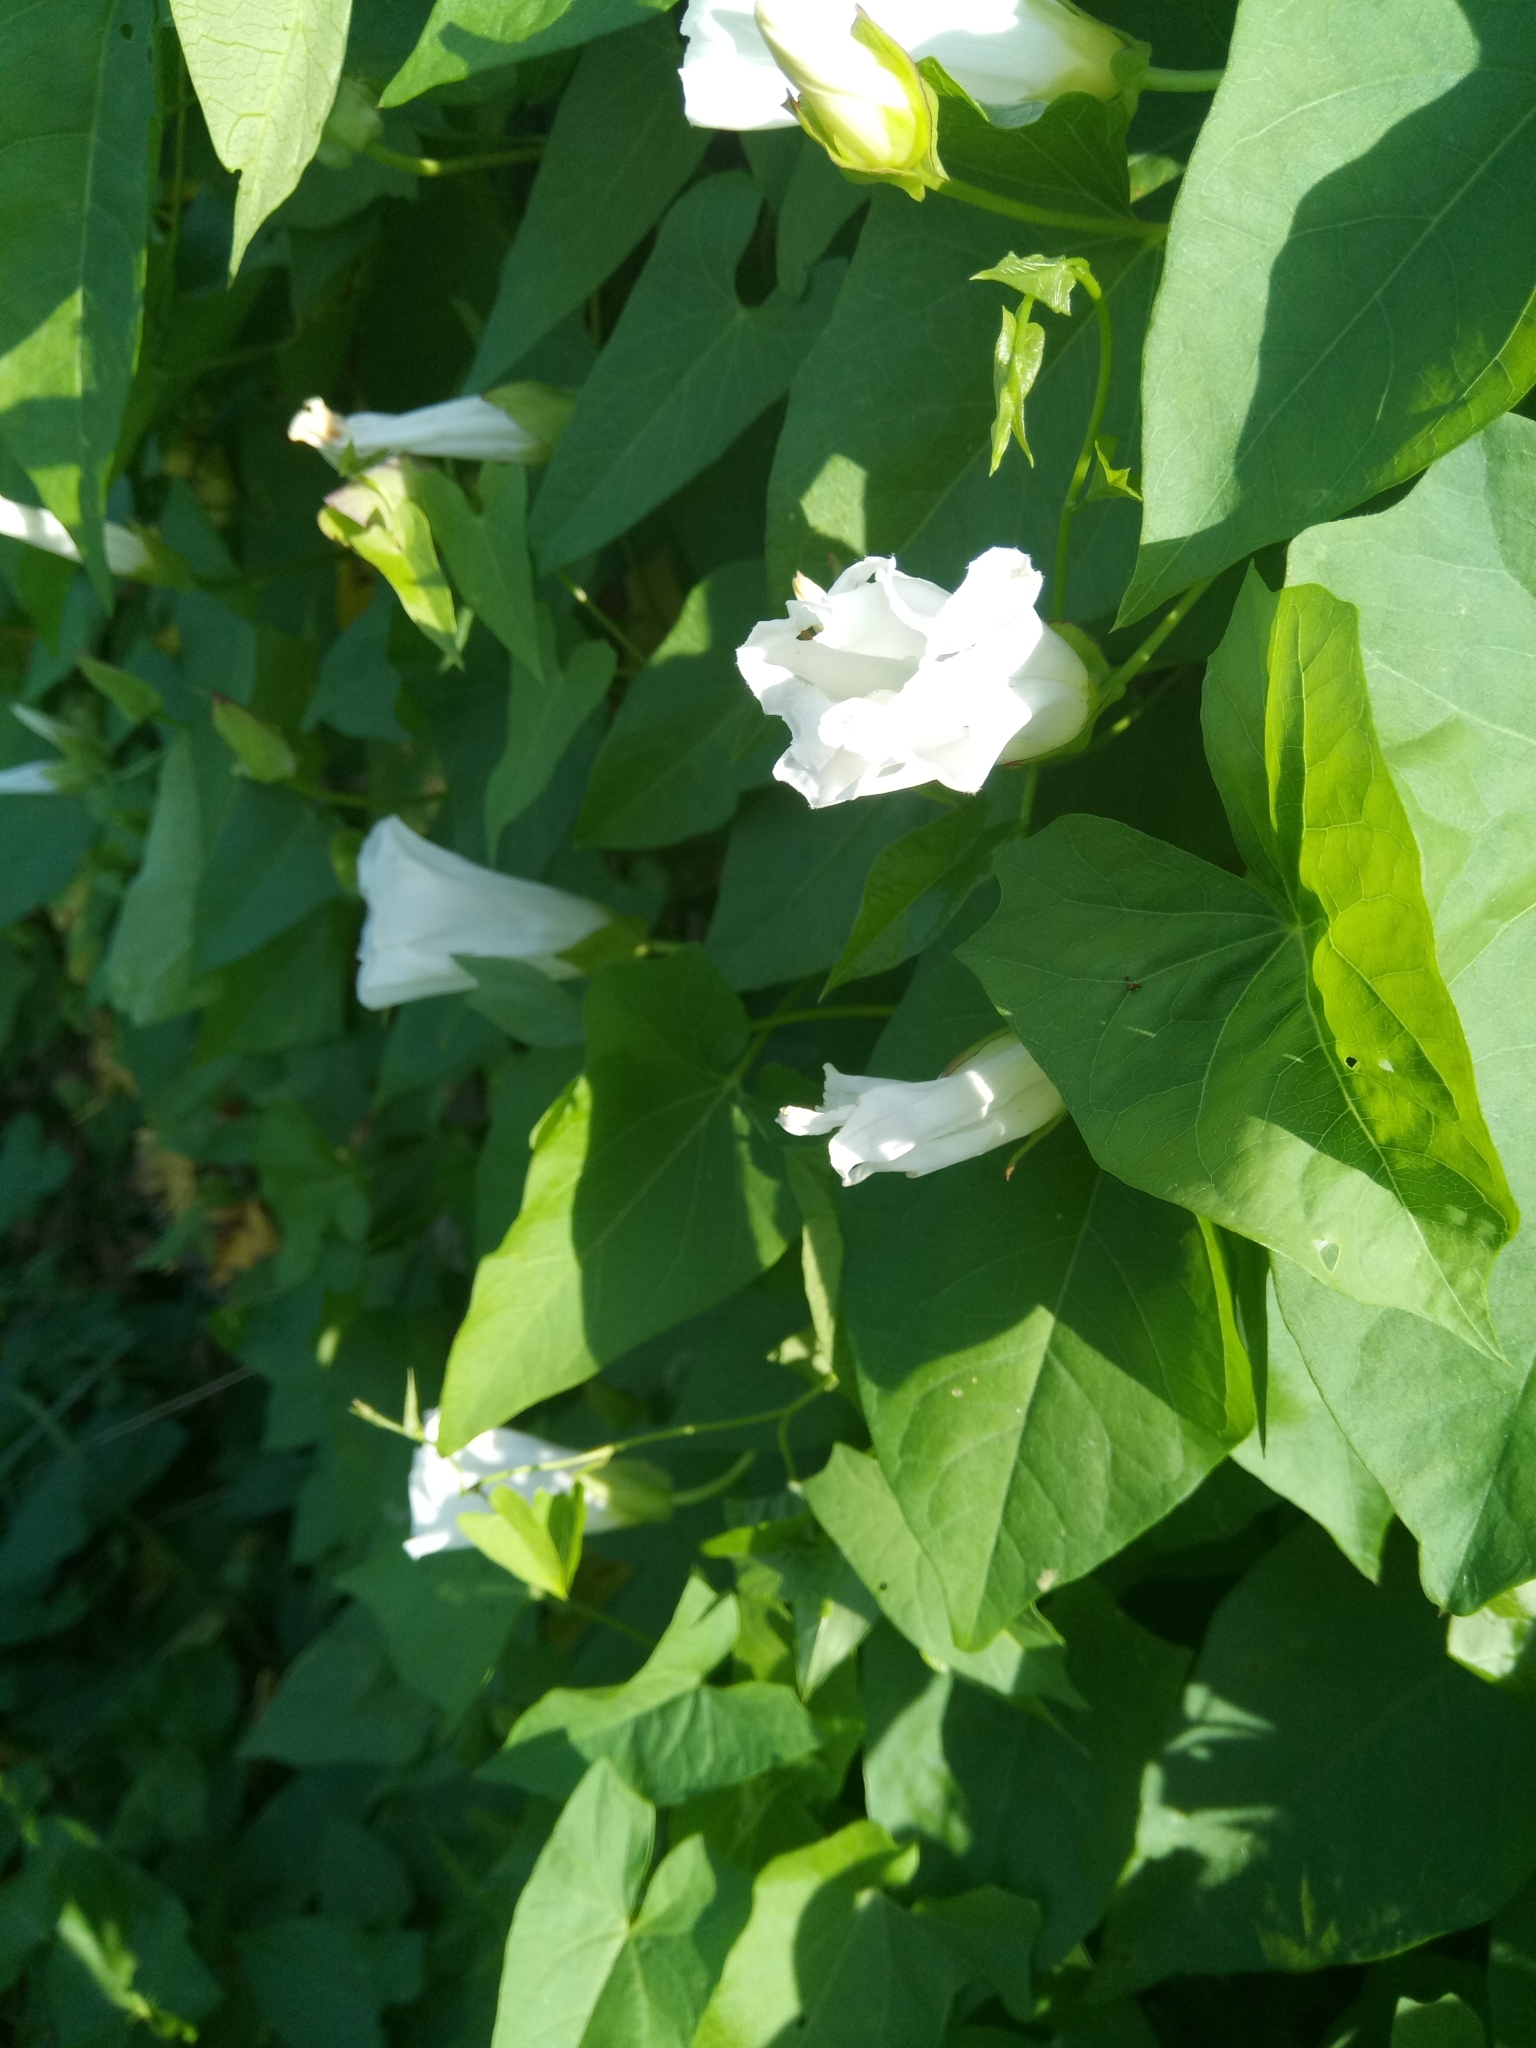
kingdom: Plantae
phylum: Tracheophyta
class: Magnoliopsida
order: Solanales
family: Convolvulaceae
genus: Calystegia
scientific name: Calystegia sepium
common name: Hedge bindweed
